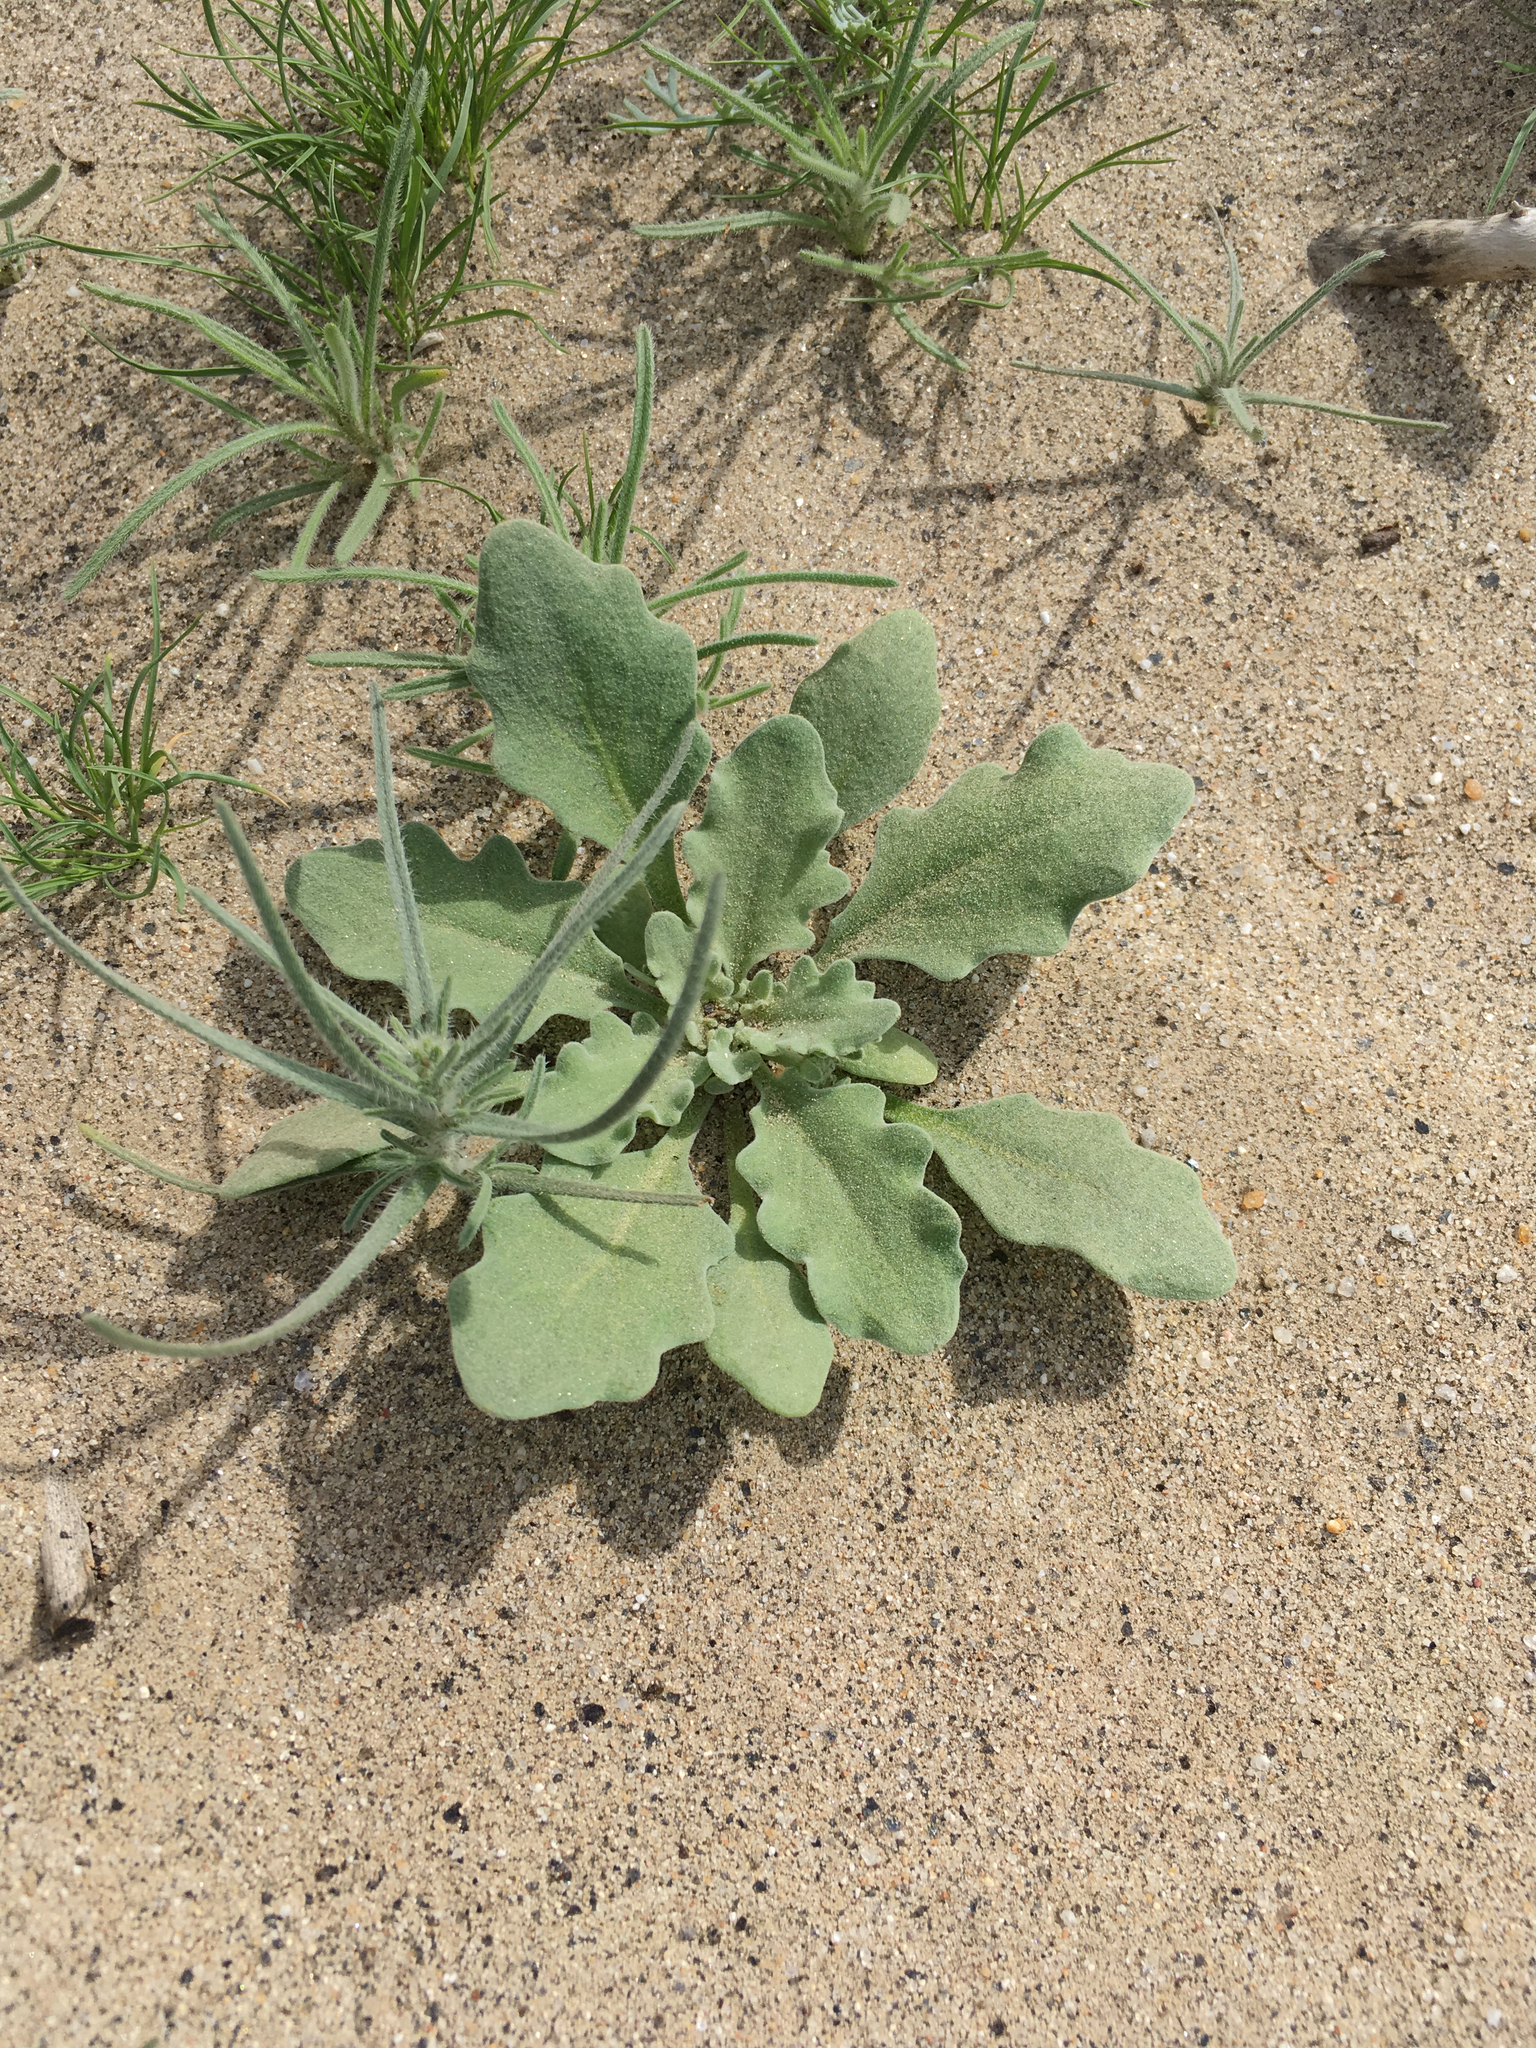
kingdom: Plantae
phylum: Tracheophyta
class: Magnoliopsida
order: Brassicales
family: Brassicaceae
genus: Dithyrea
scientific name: Dithyrea californica
